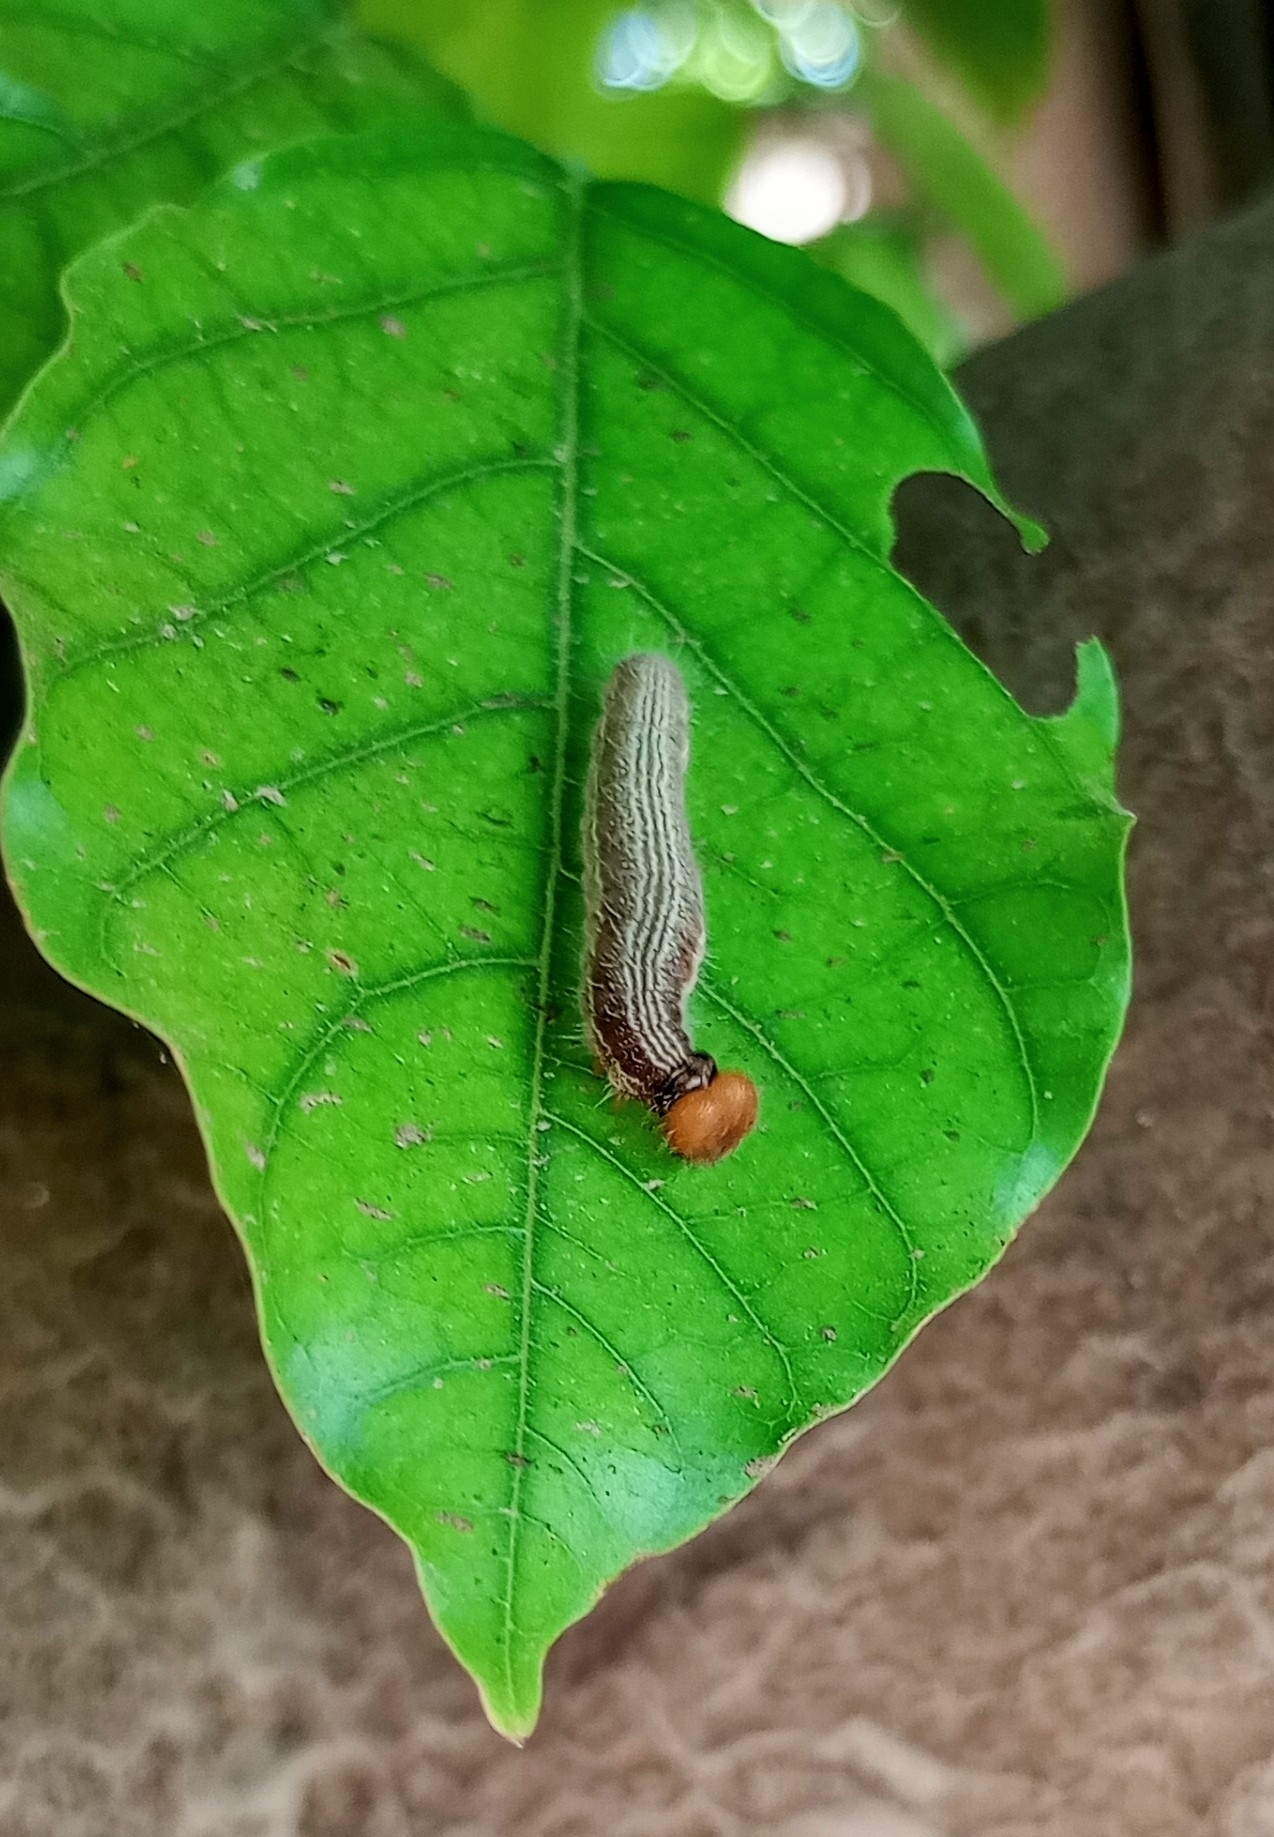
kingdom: Animalia
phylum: Arthropoda
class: Insecta
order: Lepidoptera
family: Hesperiidae
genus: Hasora
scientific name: Hasora chromus
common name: Common banded awl
